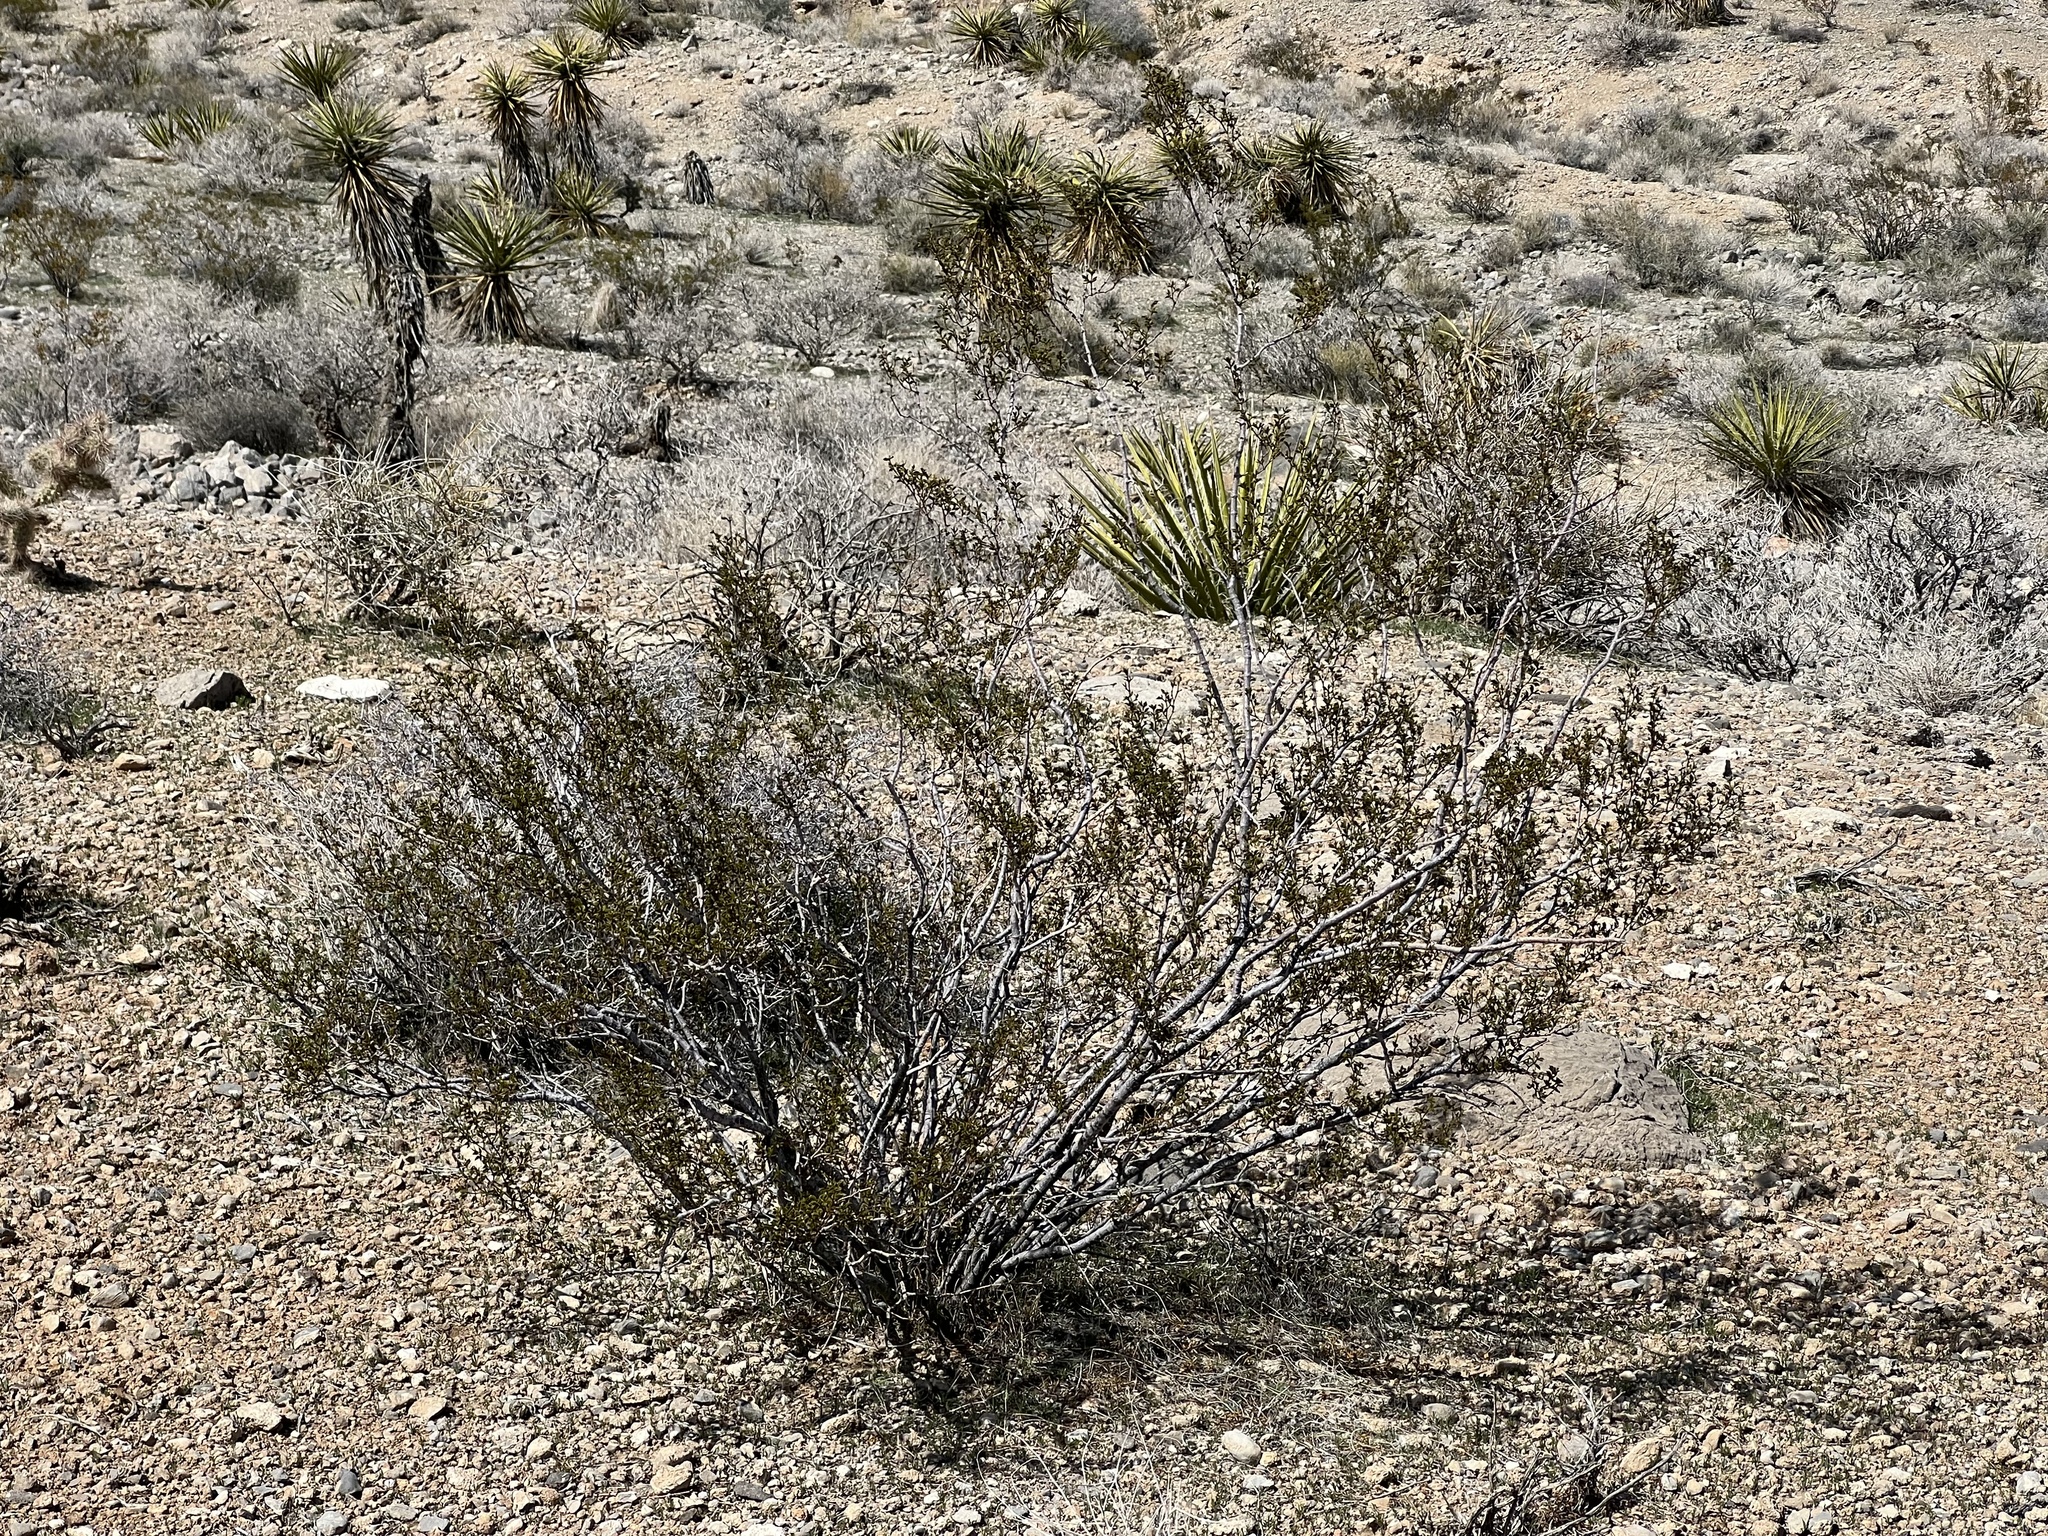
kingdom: Plantae
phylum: Tracheophyta
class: Magnoliopsida
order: Zygophyllales
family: Zygophyllaceae
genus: Larrea
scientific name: Larrea tridentata
